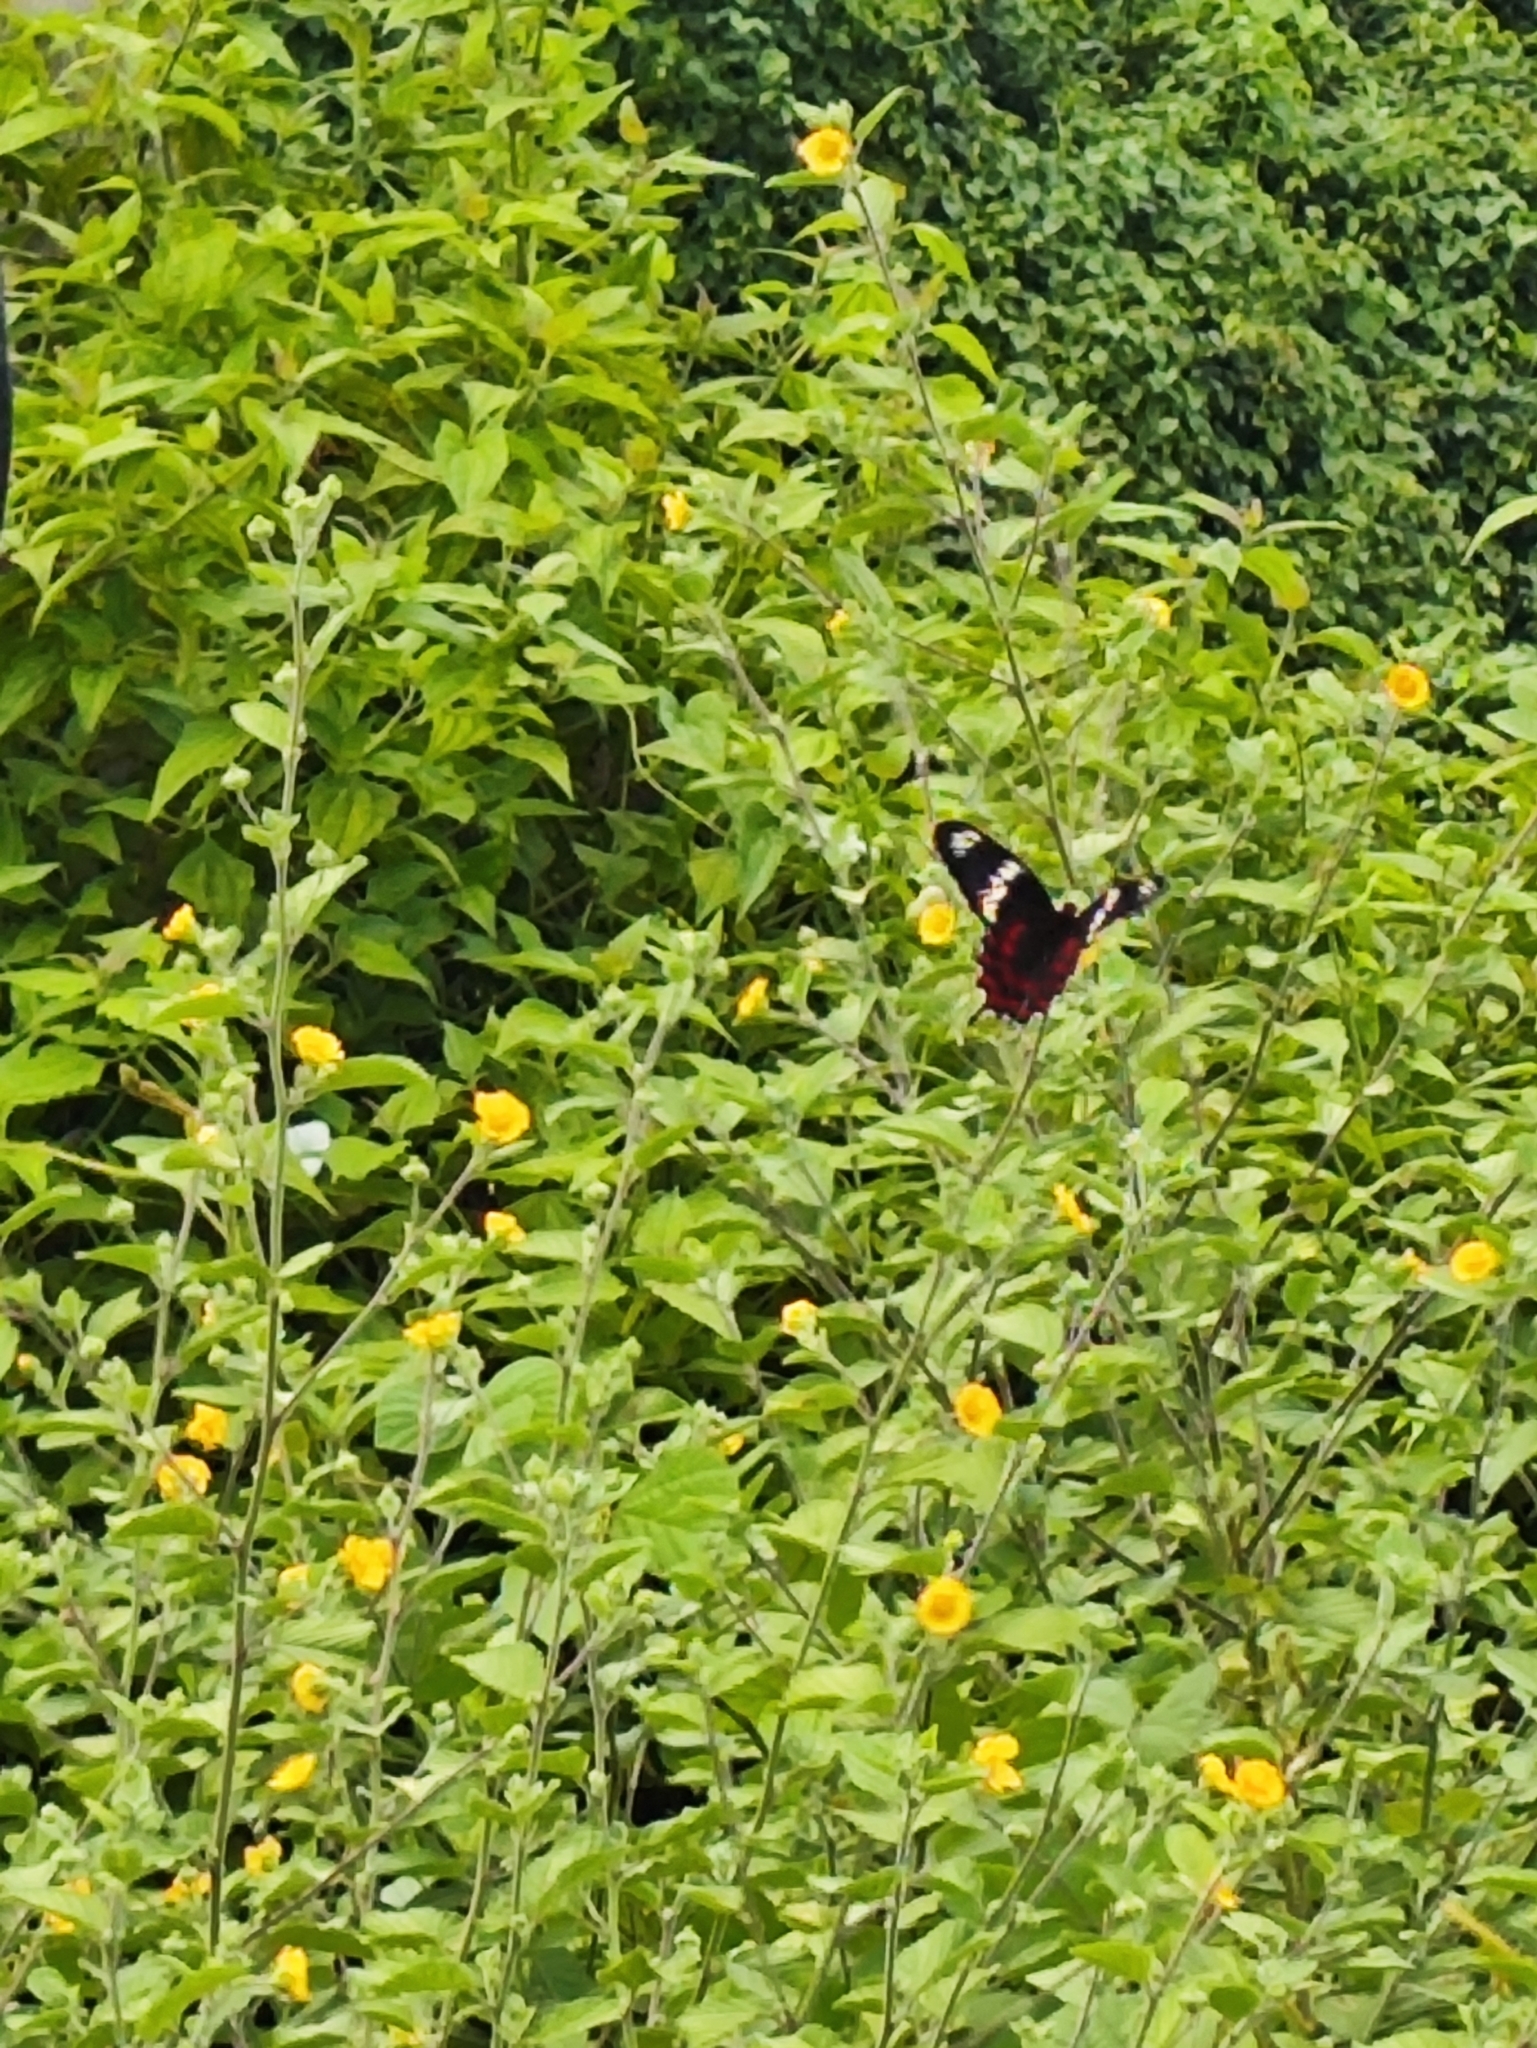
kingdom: Animalia
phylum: Arthropoda
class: Insecta
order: Lepidoptera
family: Papilionidae
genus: Pachliopta
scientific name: Pachliopta hector
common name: Crimson rose
